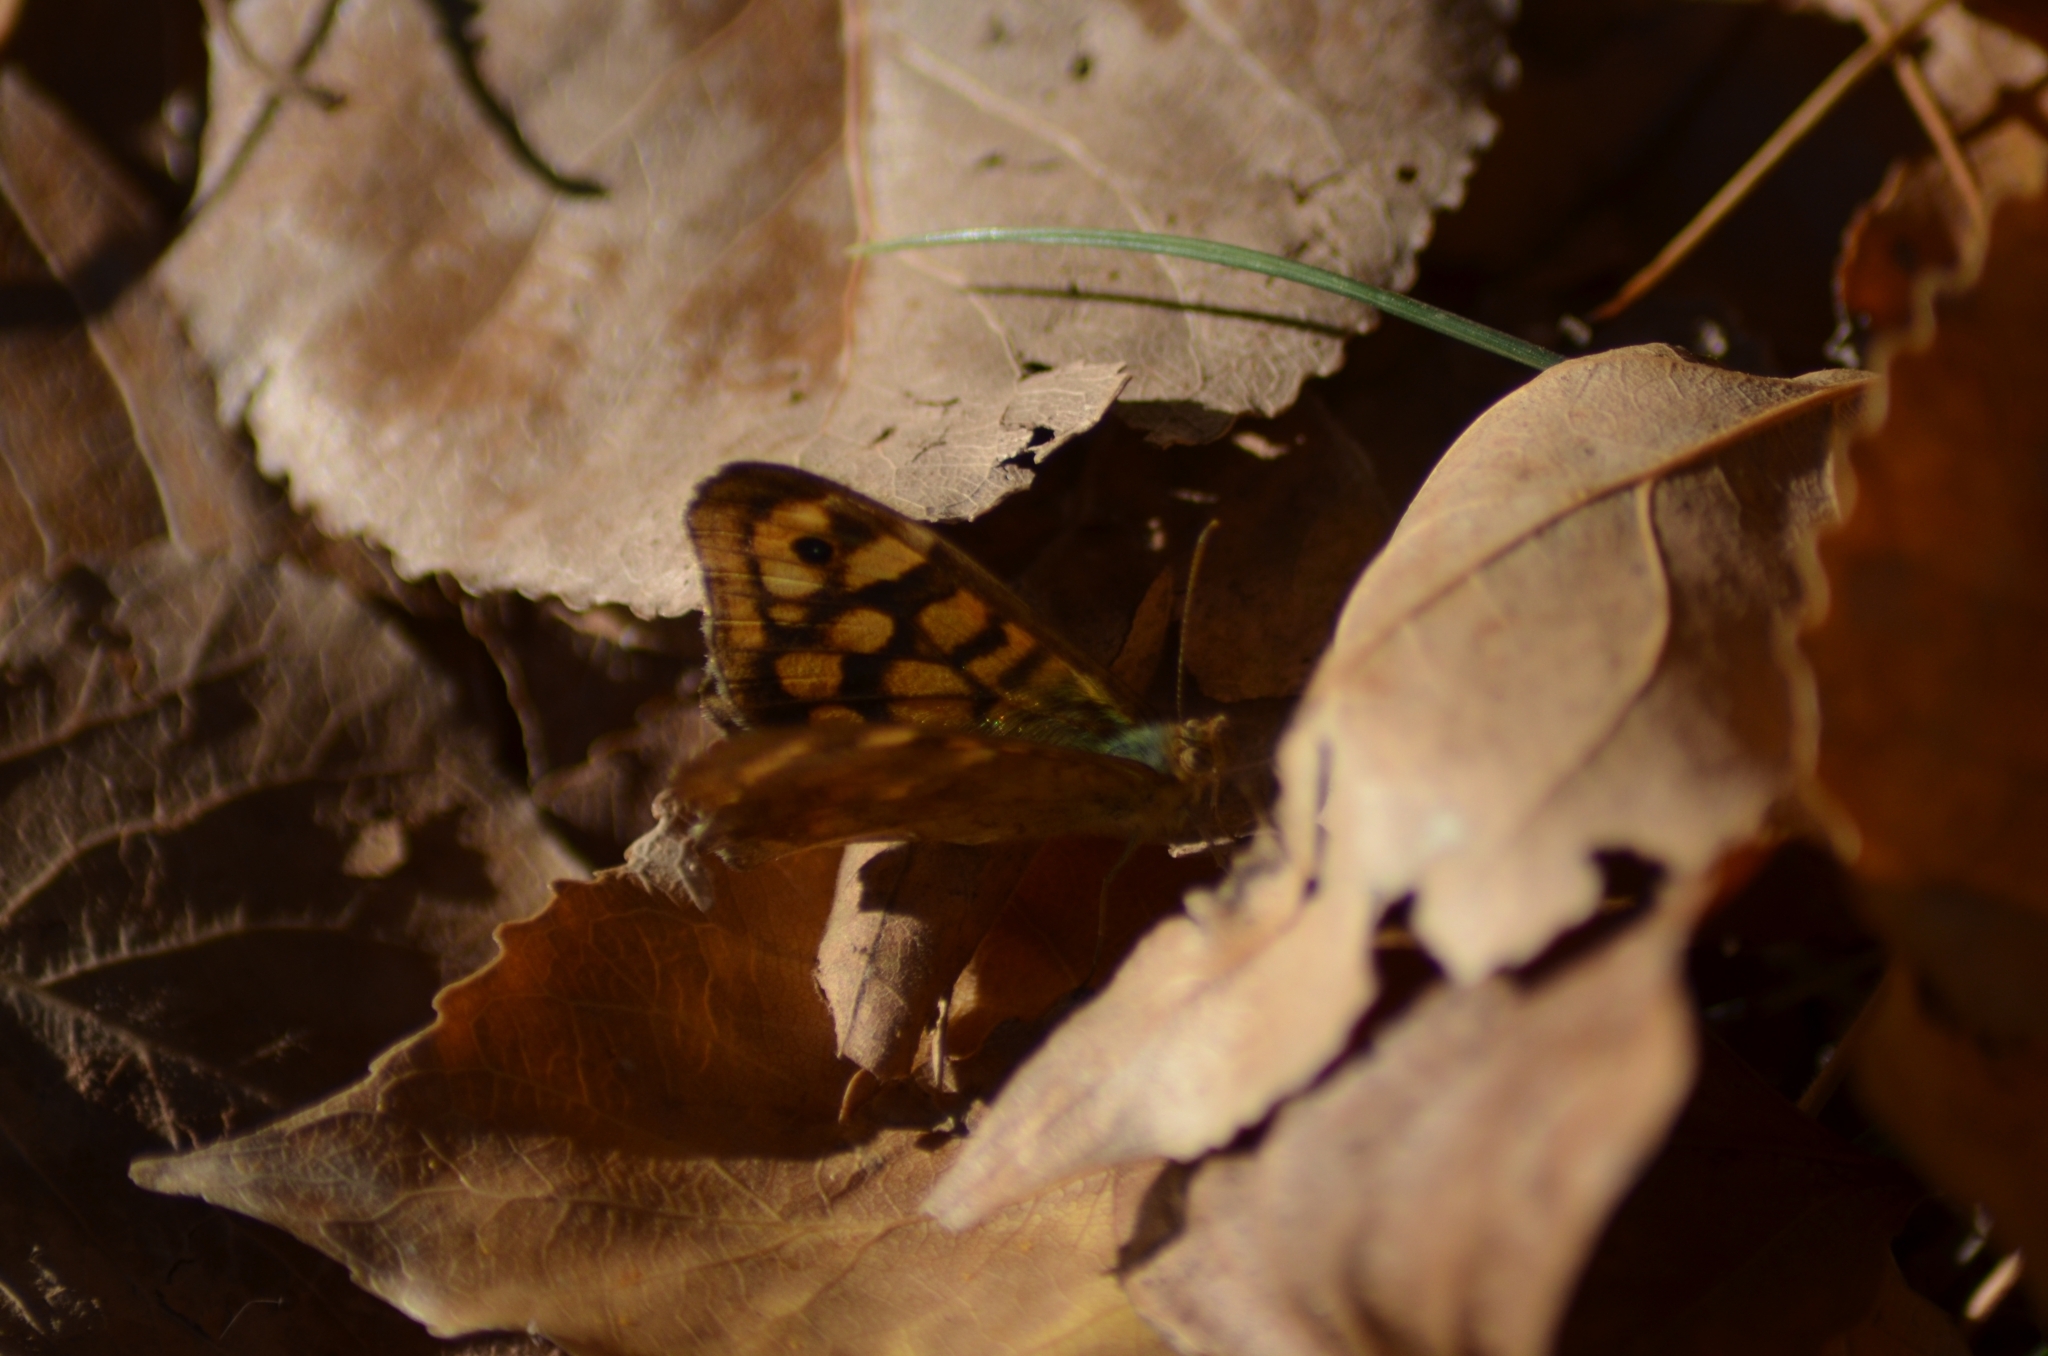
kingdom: Animalia
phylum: Arthropoda
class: Insecta
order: Lepidoptera
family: Nymphalidae
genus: Pararge
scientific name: Pararge aegeria
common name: Speckled wood
